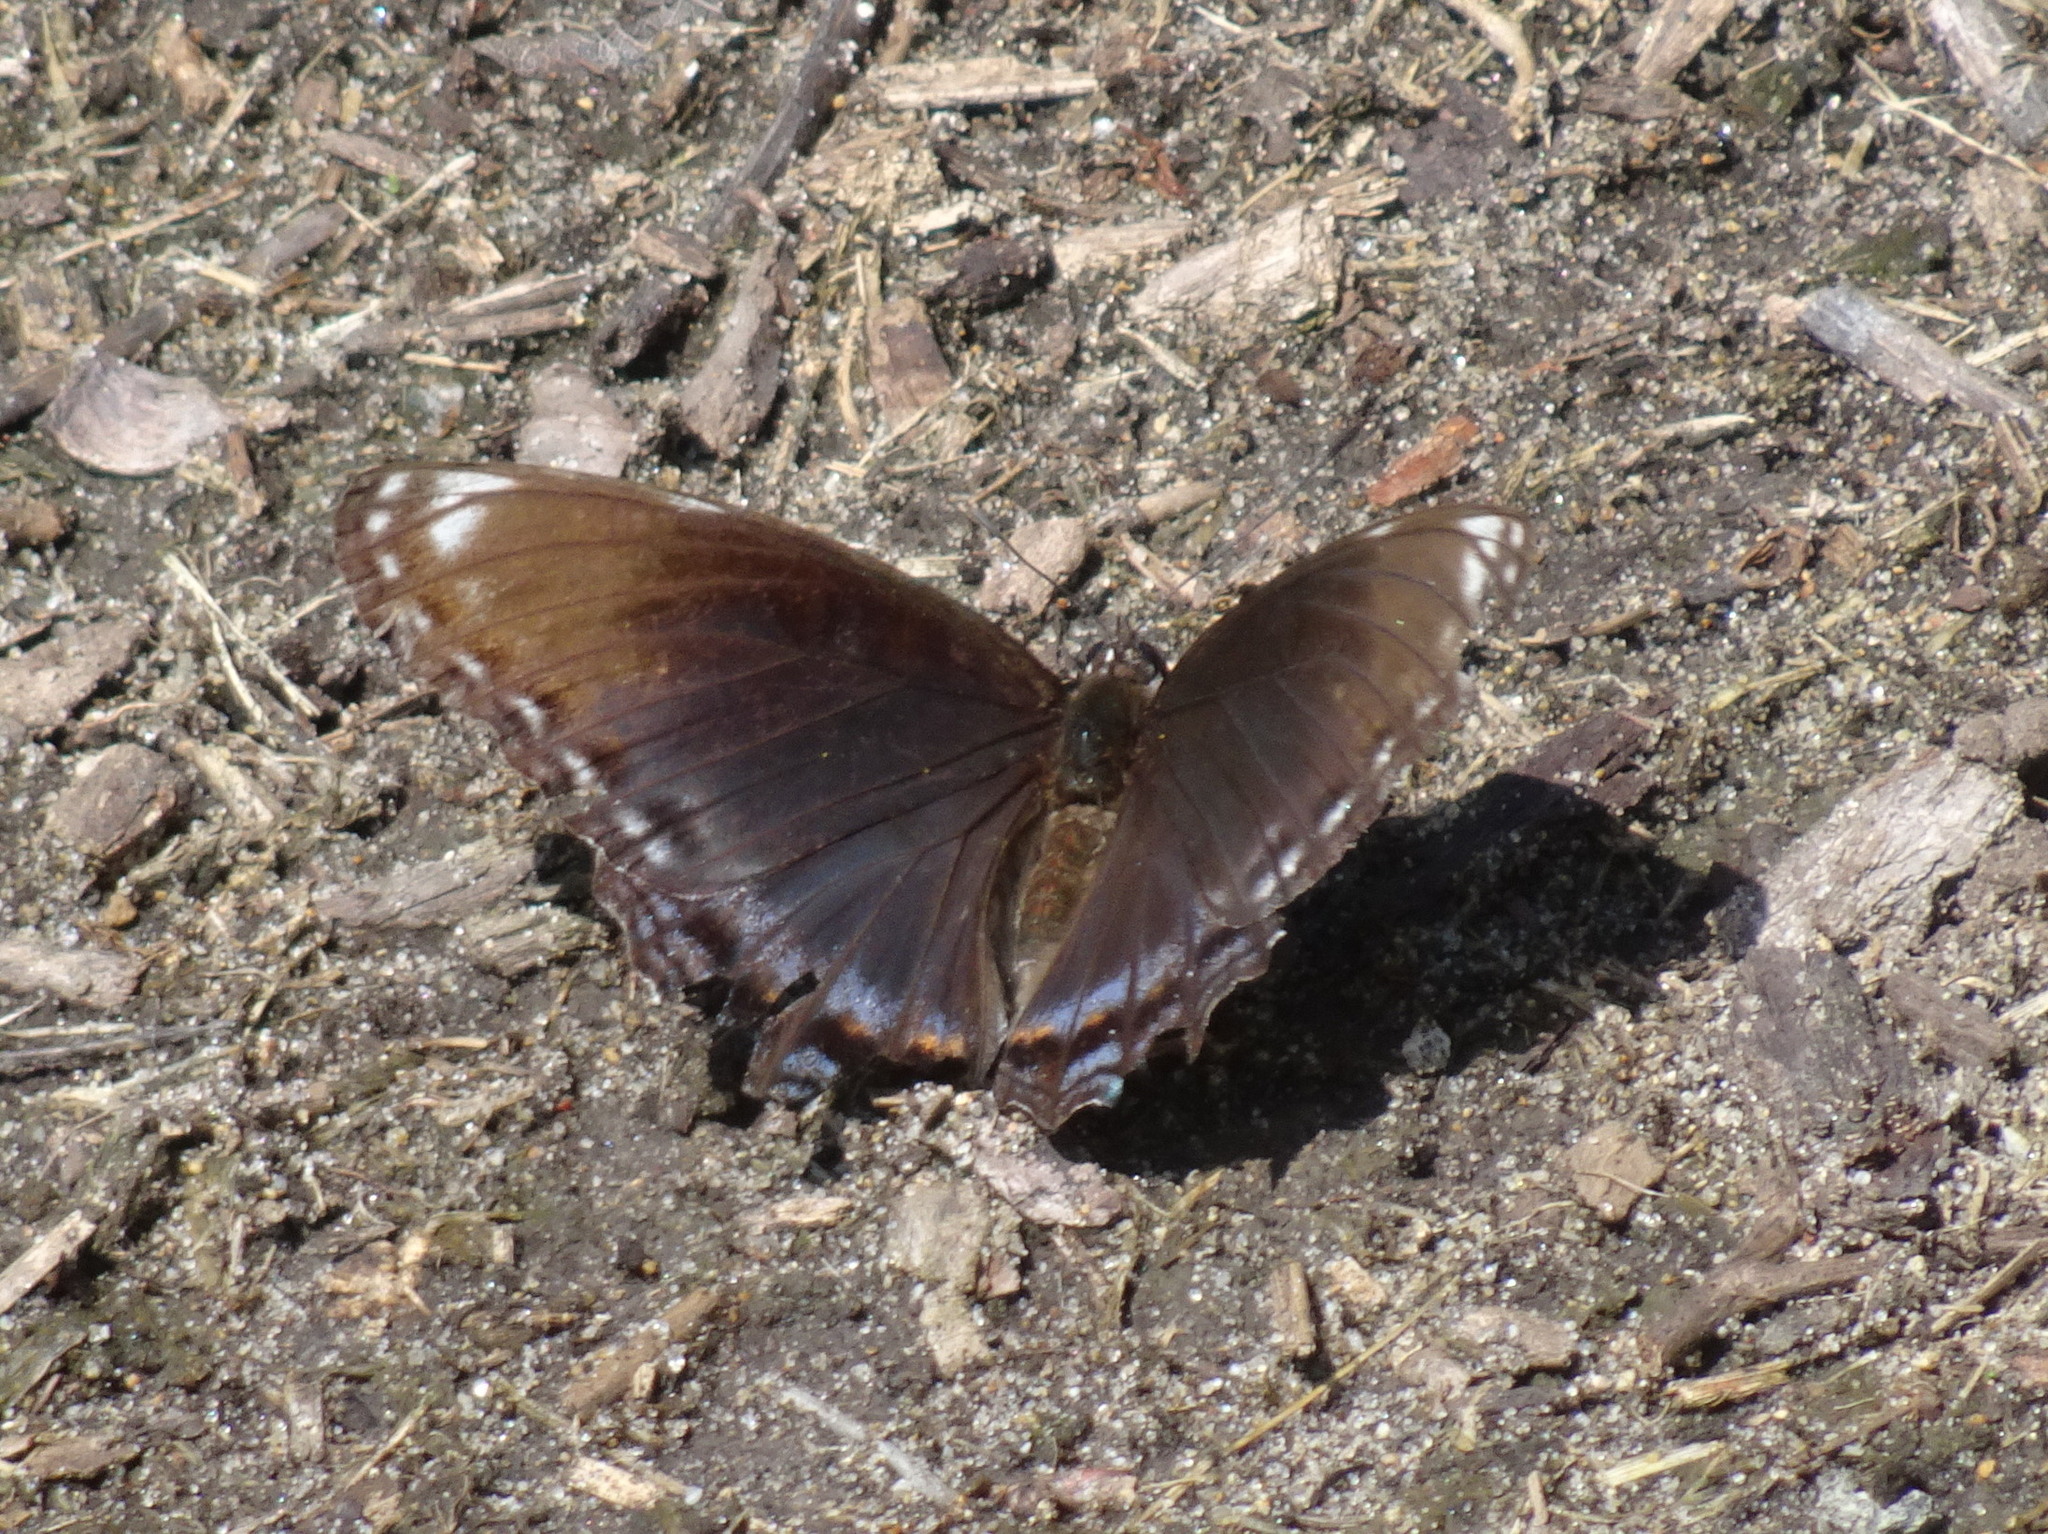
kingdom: Animalia
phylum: Arthropoda
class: Insecta
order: Lepidoptera
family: Nymphalidae
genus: Limenitis
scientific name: Limenitis arthemis
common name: Red-spotted admiral
